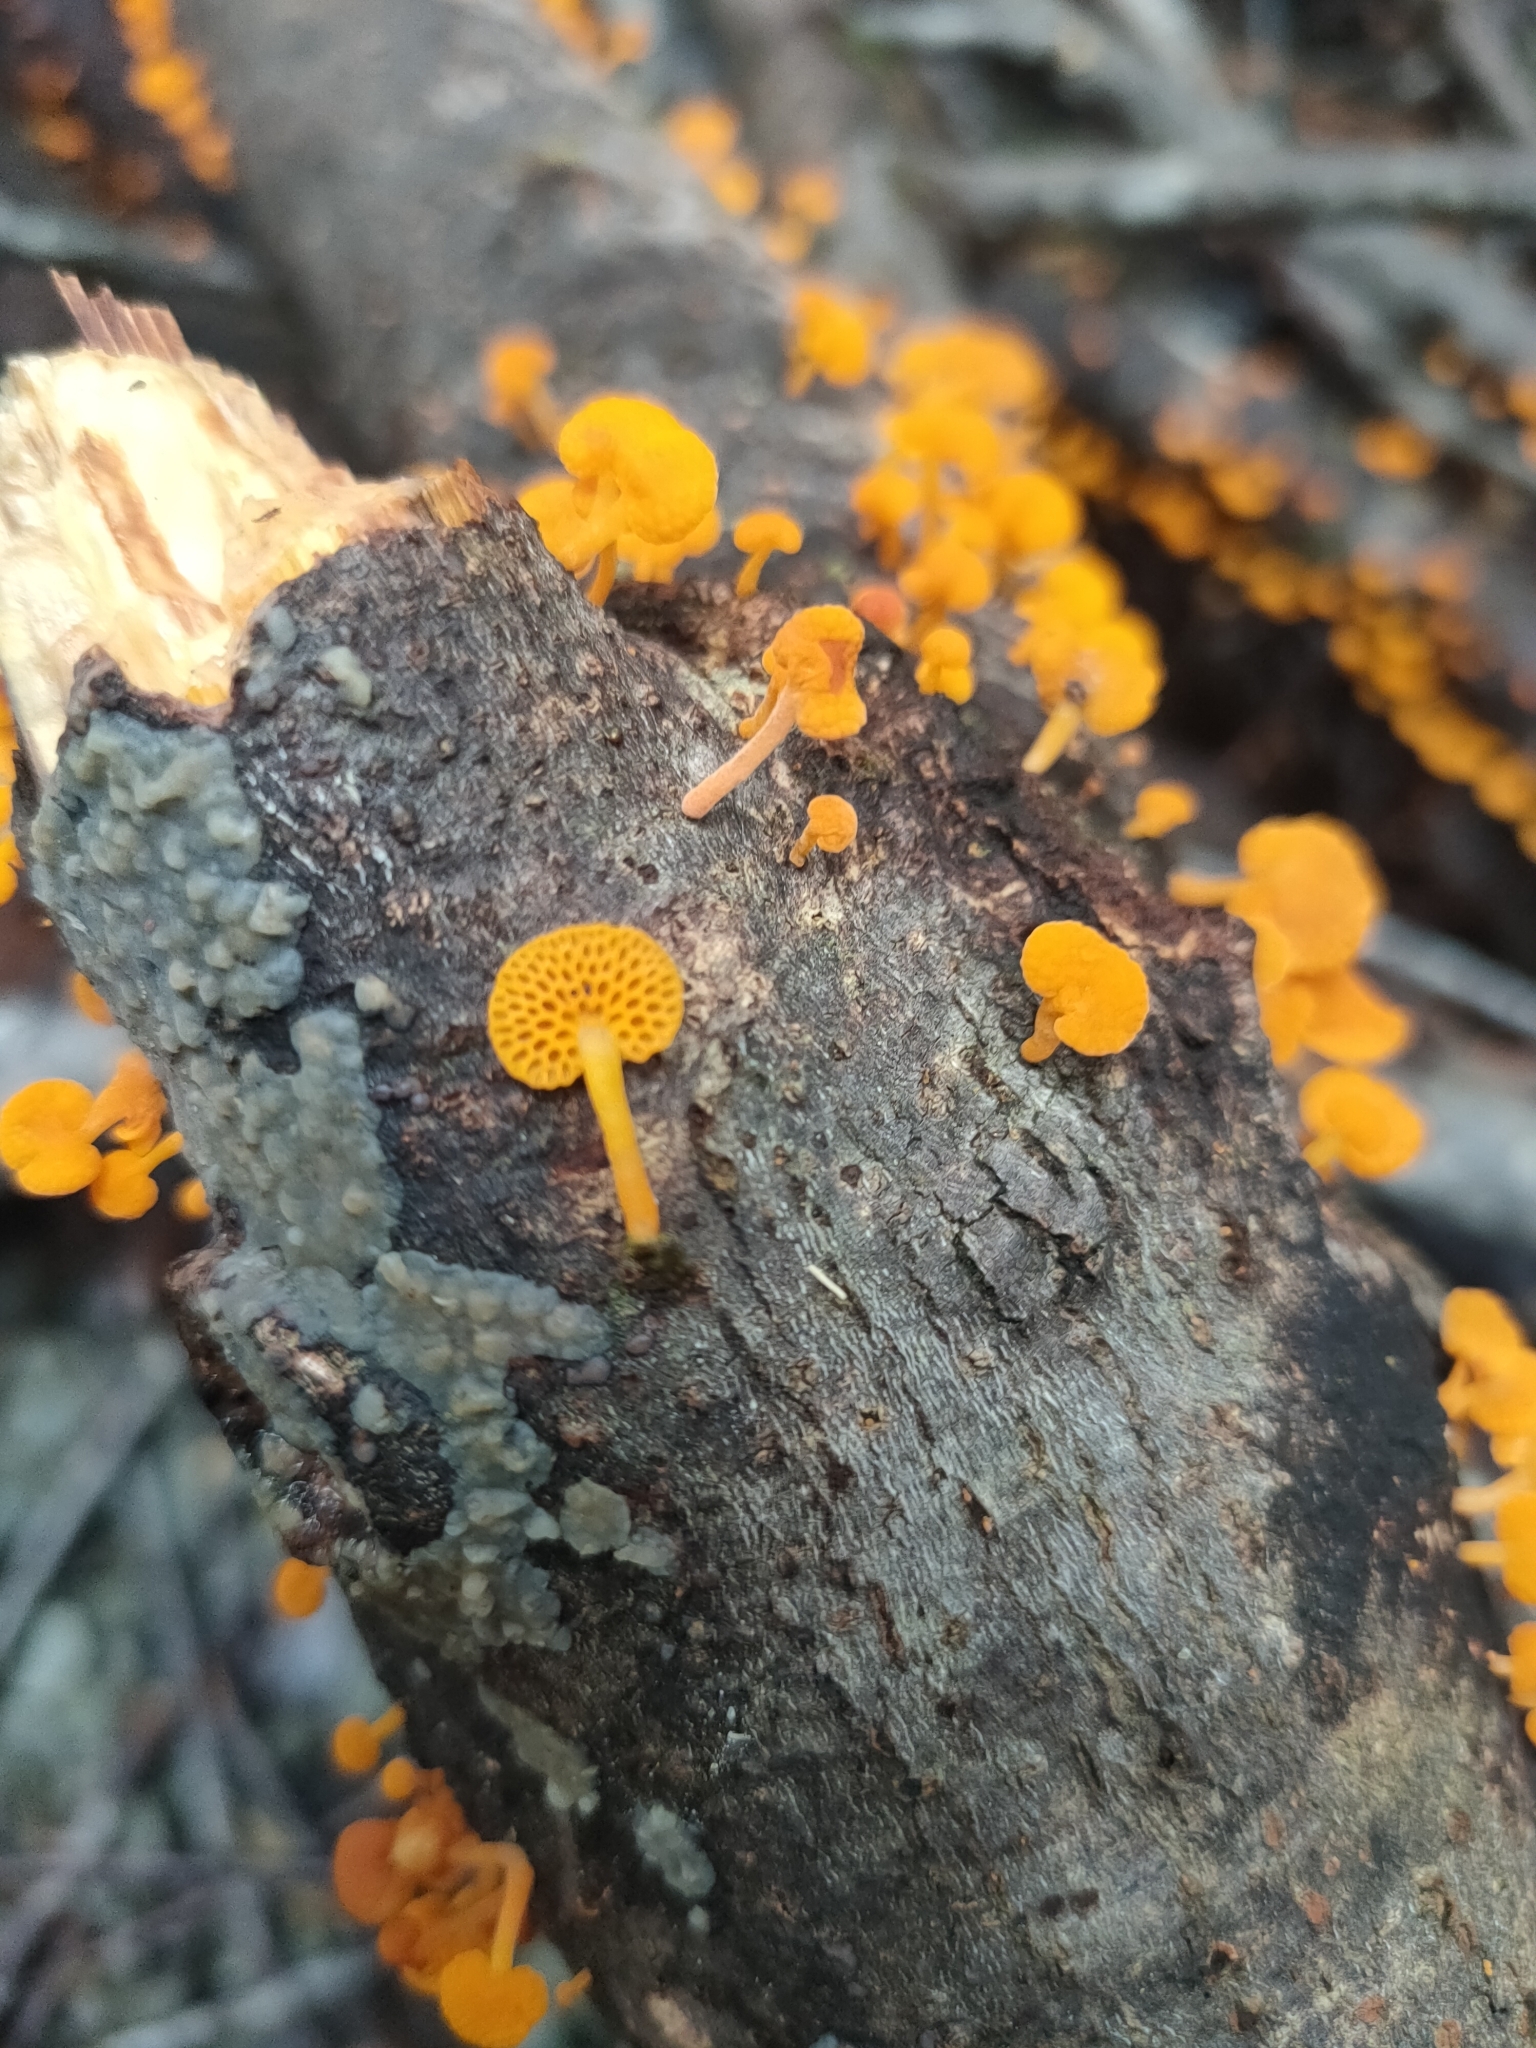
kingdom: Fungi
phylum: Basidiomycota
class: Agaricomycetes
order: Agaricales
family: Mycenaceae
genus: Favolaschia
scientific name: Favolaschia claudopus
